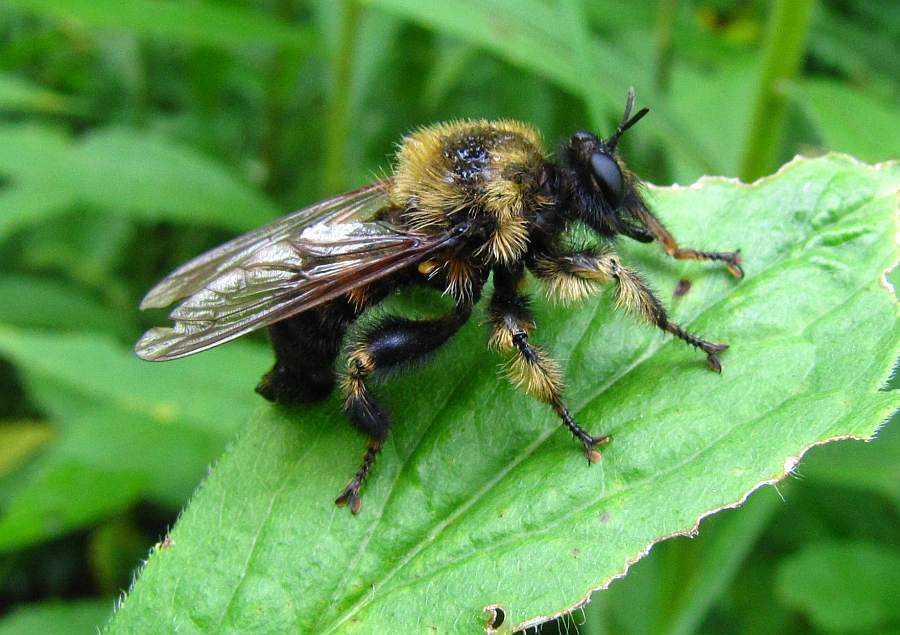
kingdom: Animalia
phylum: Arthropoda
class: Insecta
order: Diptera
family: Asilidae
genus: Laphria
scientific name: Laphria sacrator
